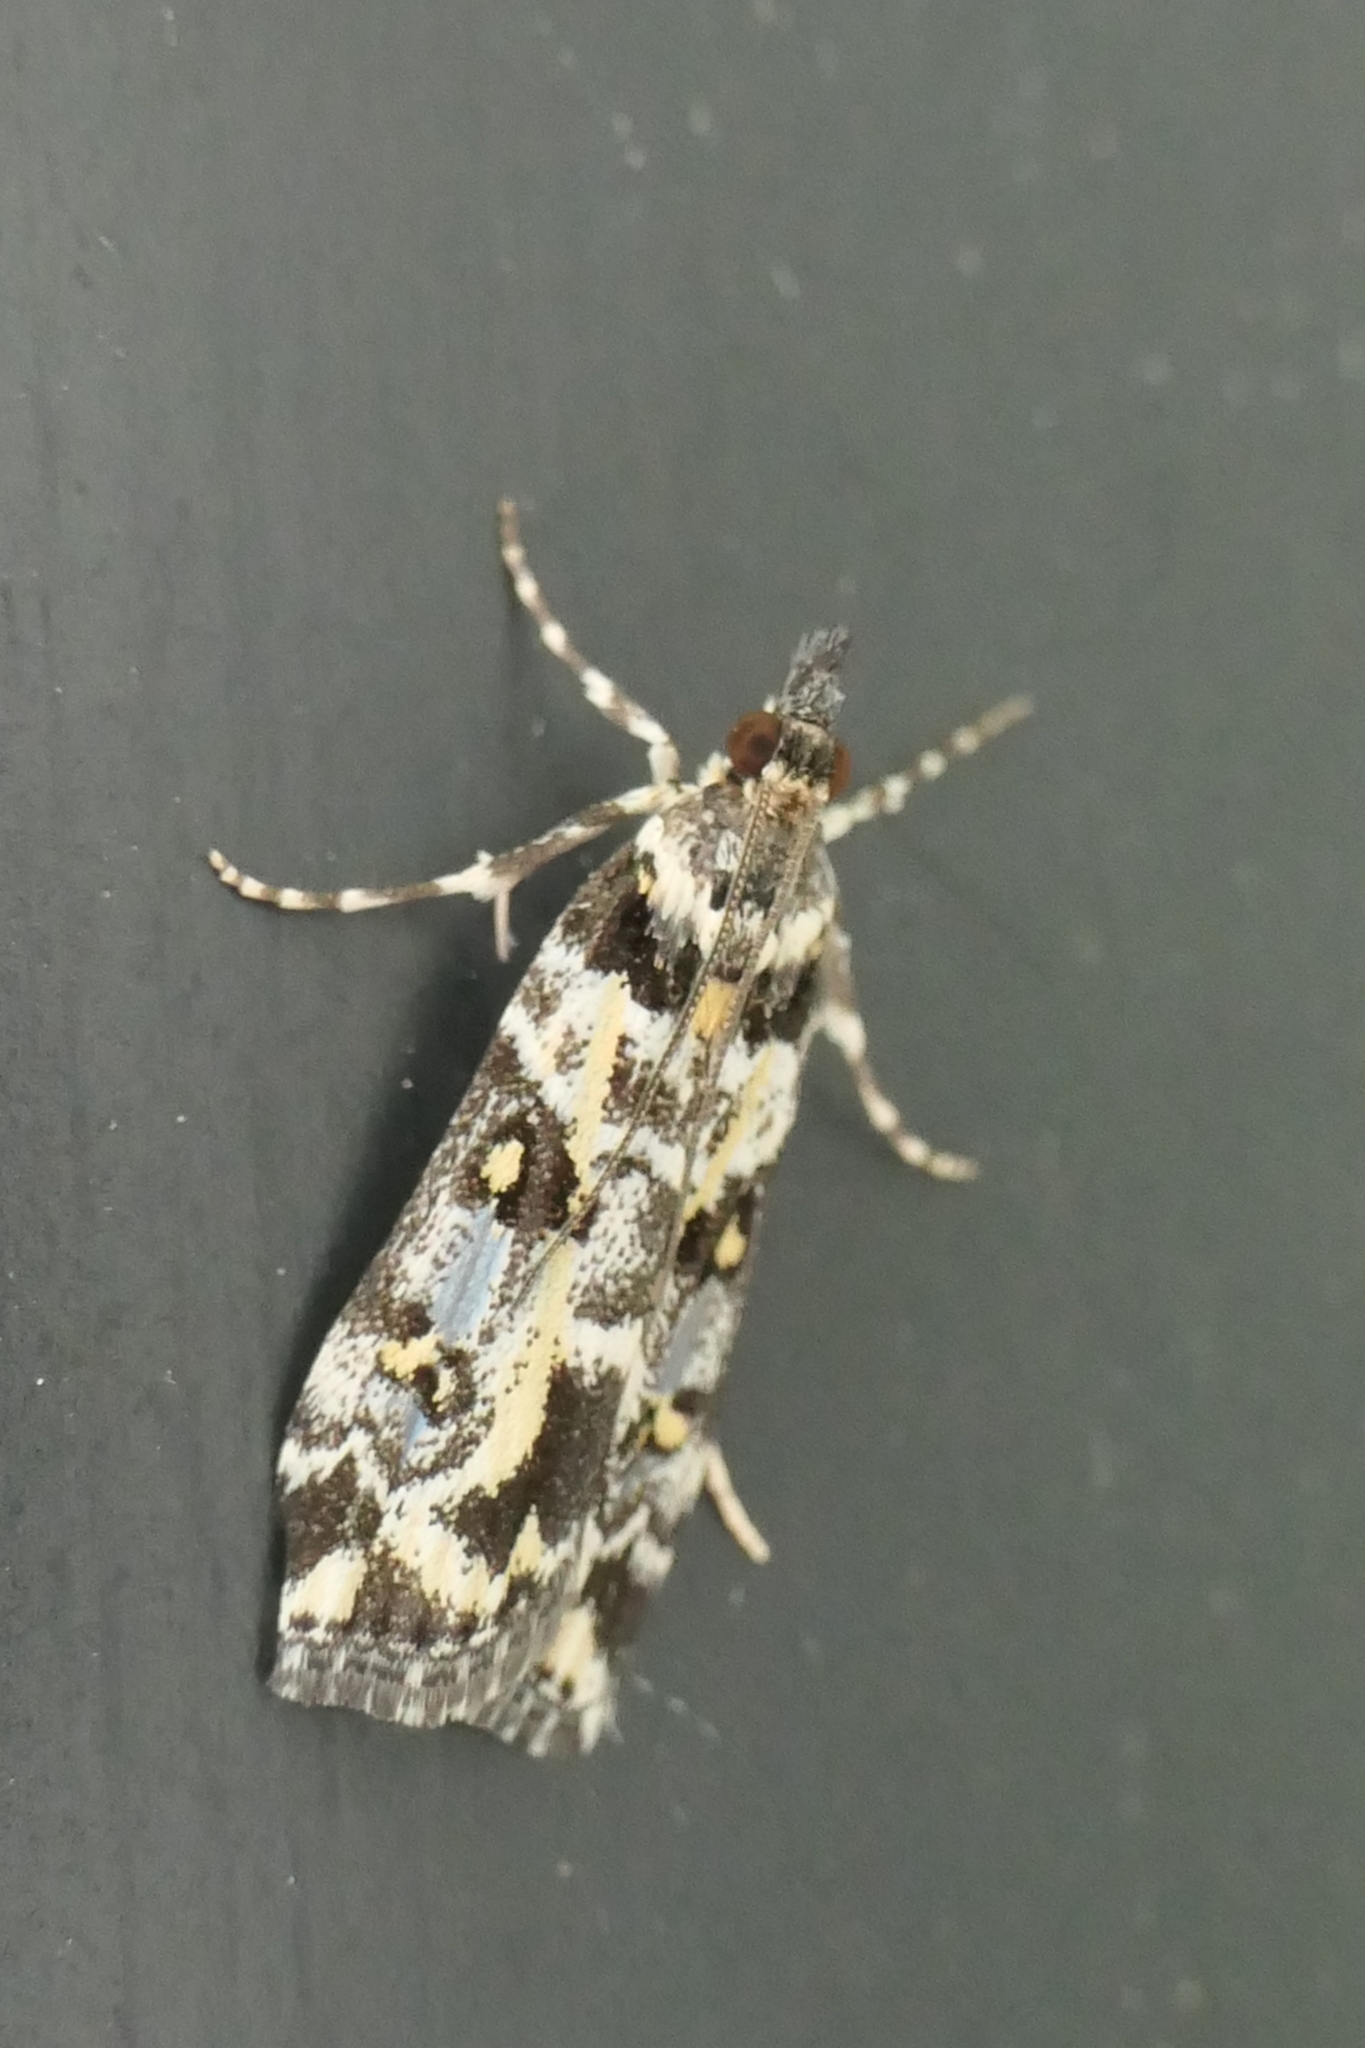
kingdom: Animalia
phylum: Arthropoda
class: Insecta
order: Lepidoptera
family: Crambidae
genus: Eudonia
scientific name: Eudonia diphtheralis
